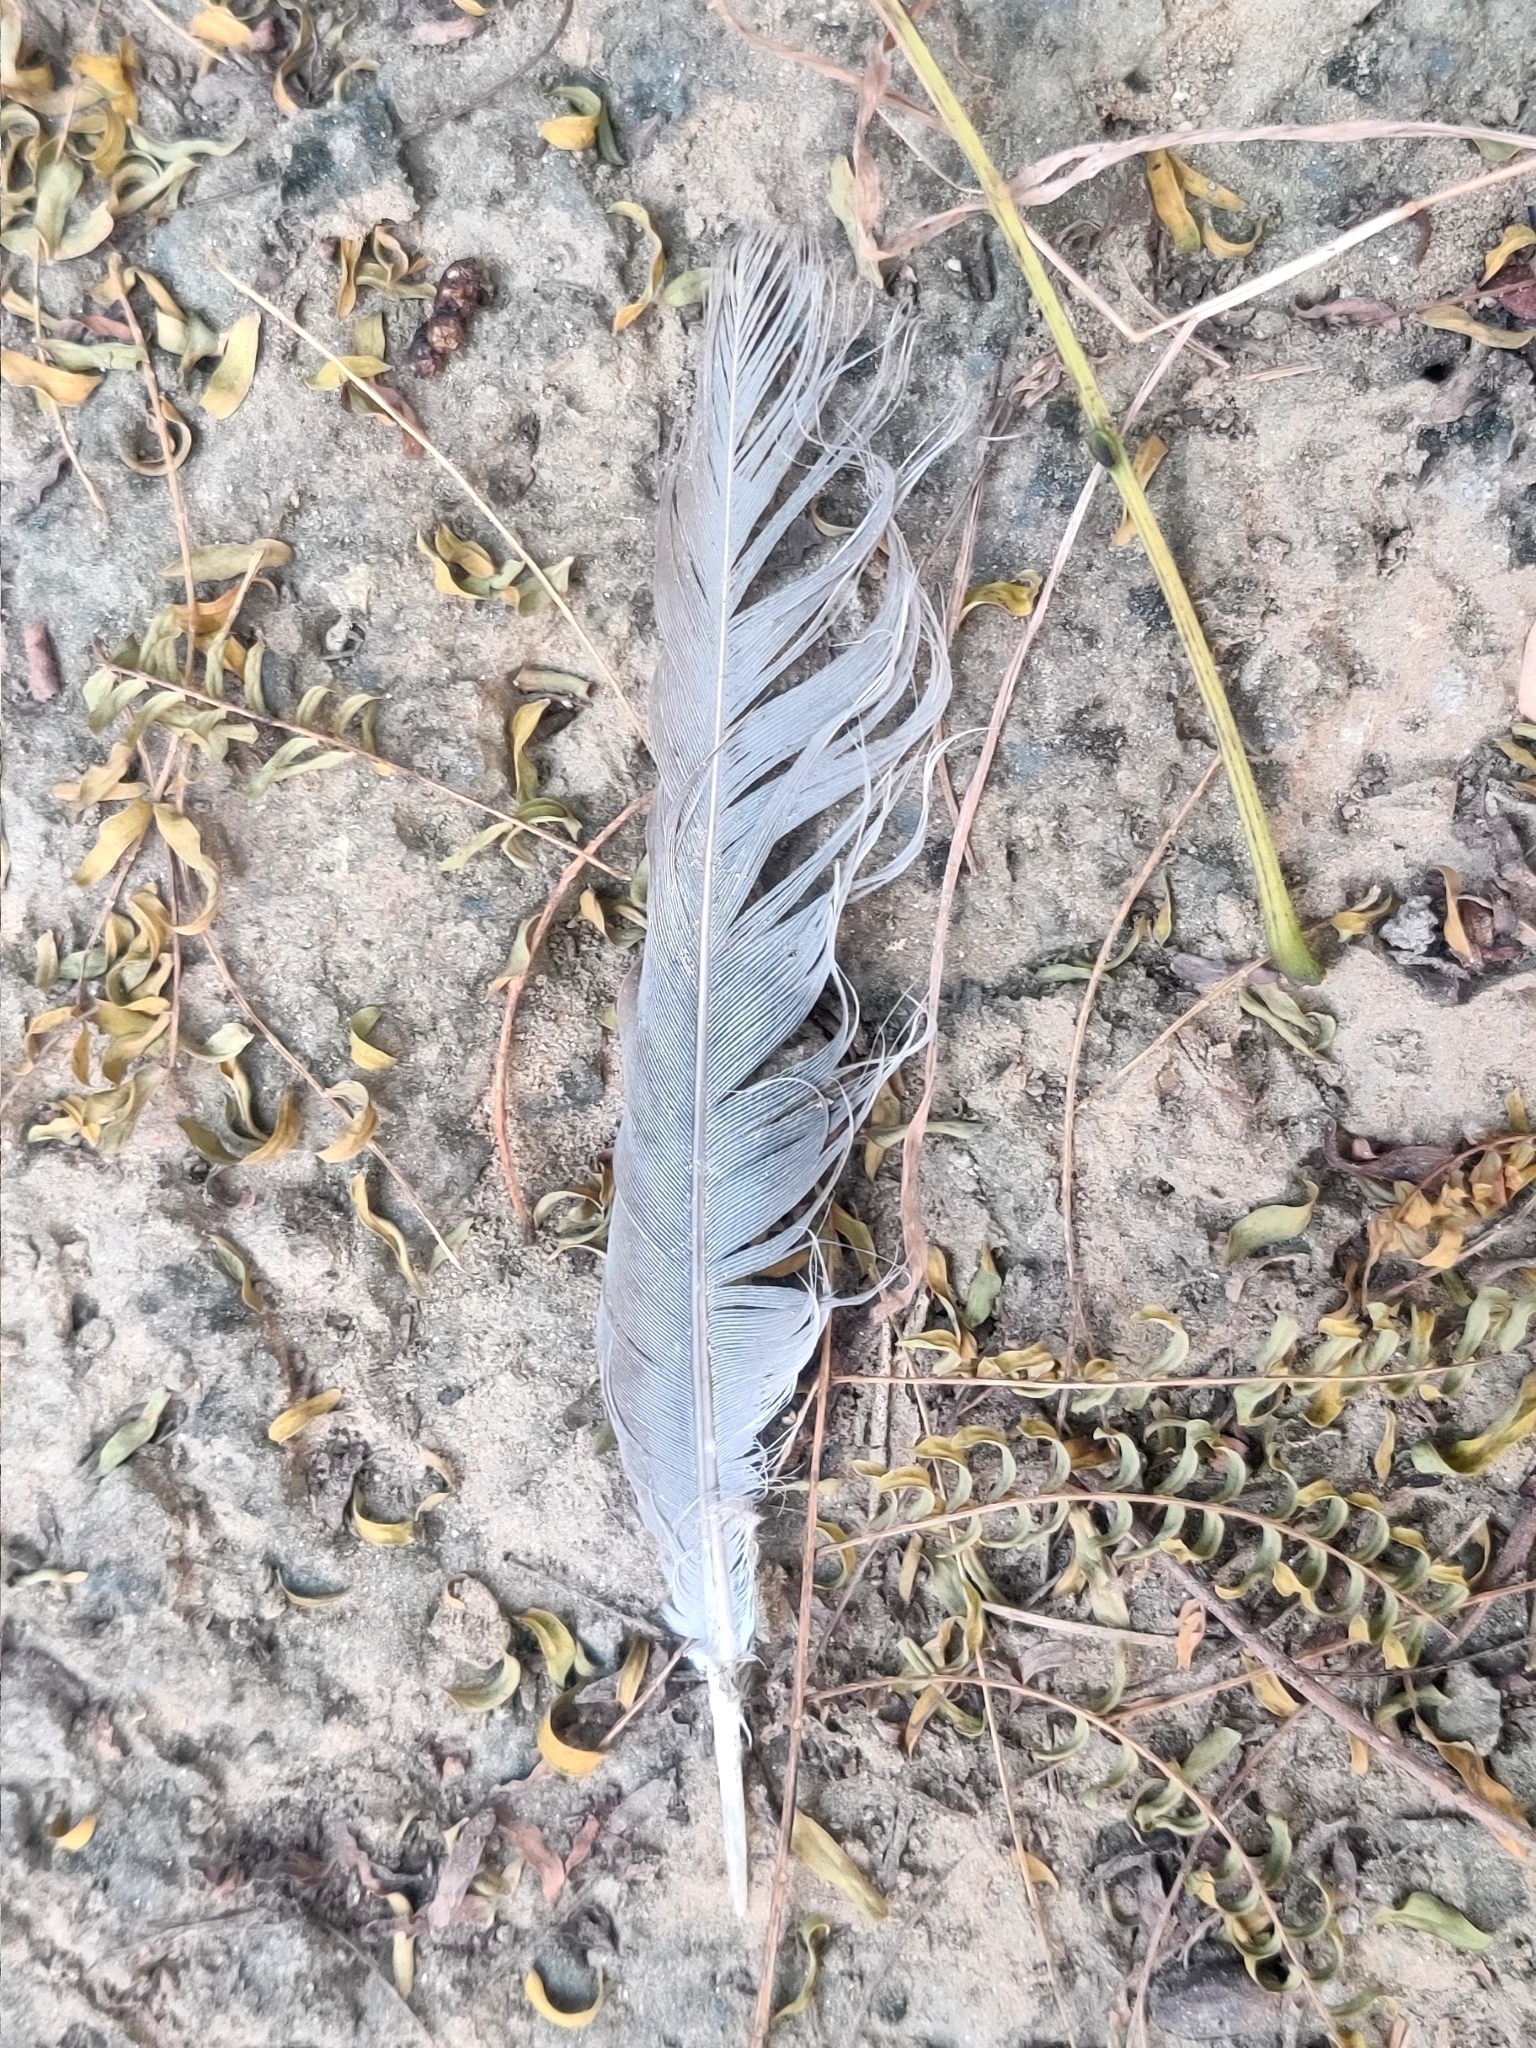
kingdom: Animalia
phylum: Chordata
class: Aves
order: Columbiformes
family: Columbidae
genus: Streptopelia
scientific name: Streptopelia decaocto
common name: Eurasian collared dove
